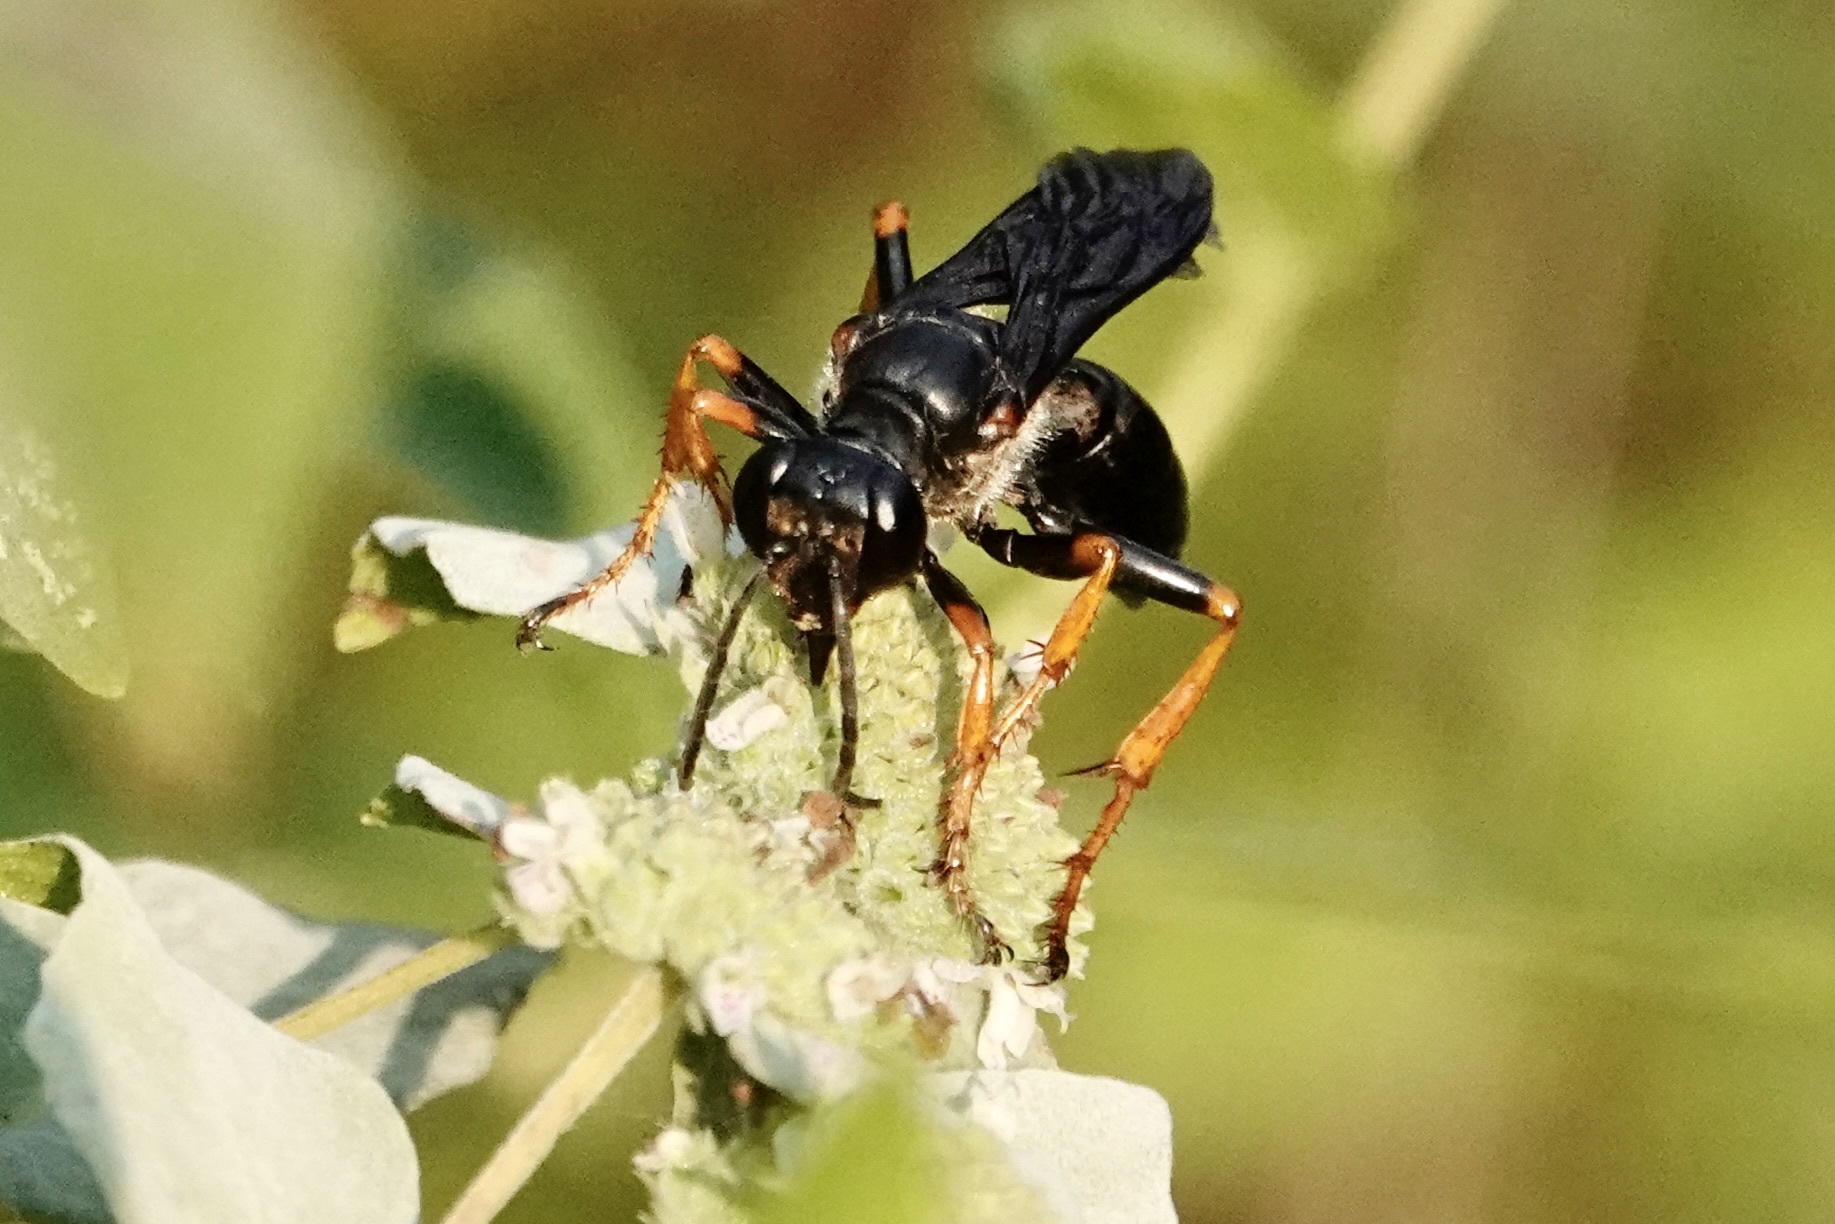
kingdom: Animalia
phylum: Arthropoda
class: Insecta
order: Hymenoptera
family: Sphecidae
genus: Sphex
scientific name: Sphex nudus
